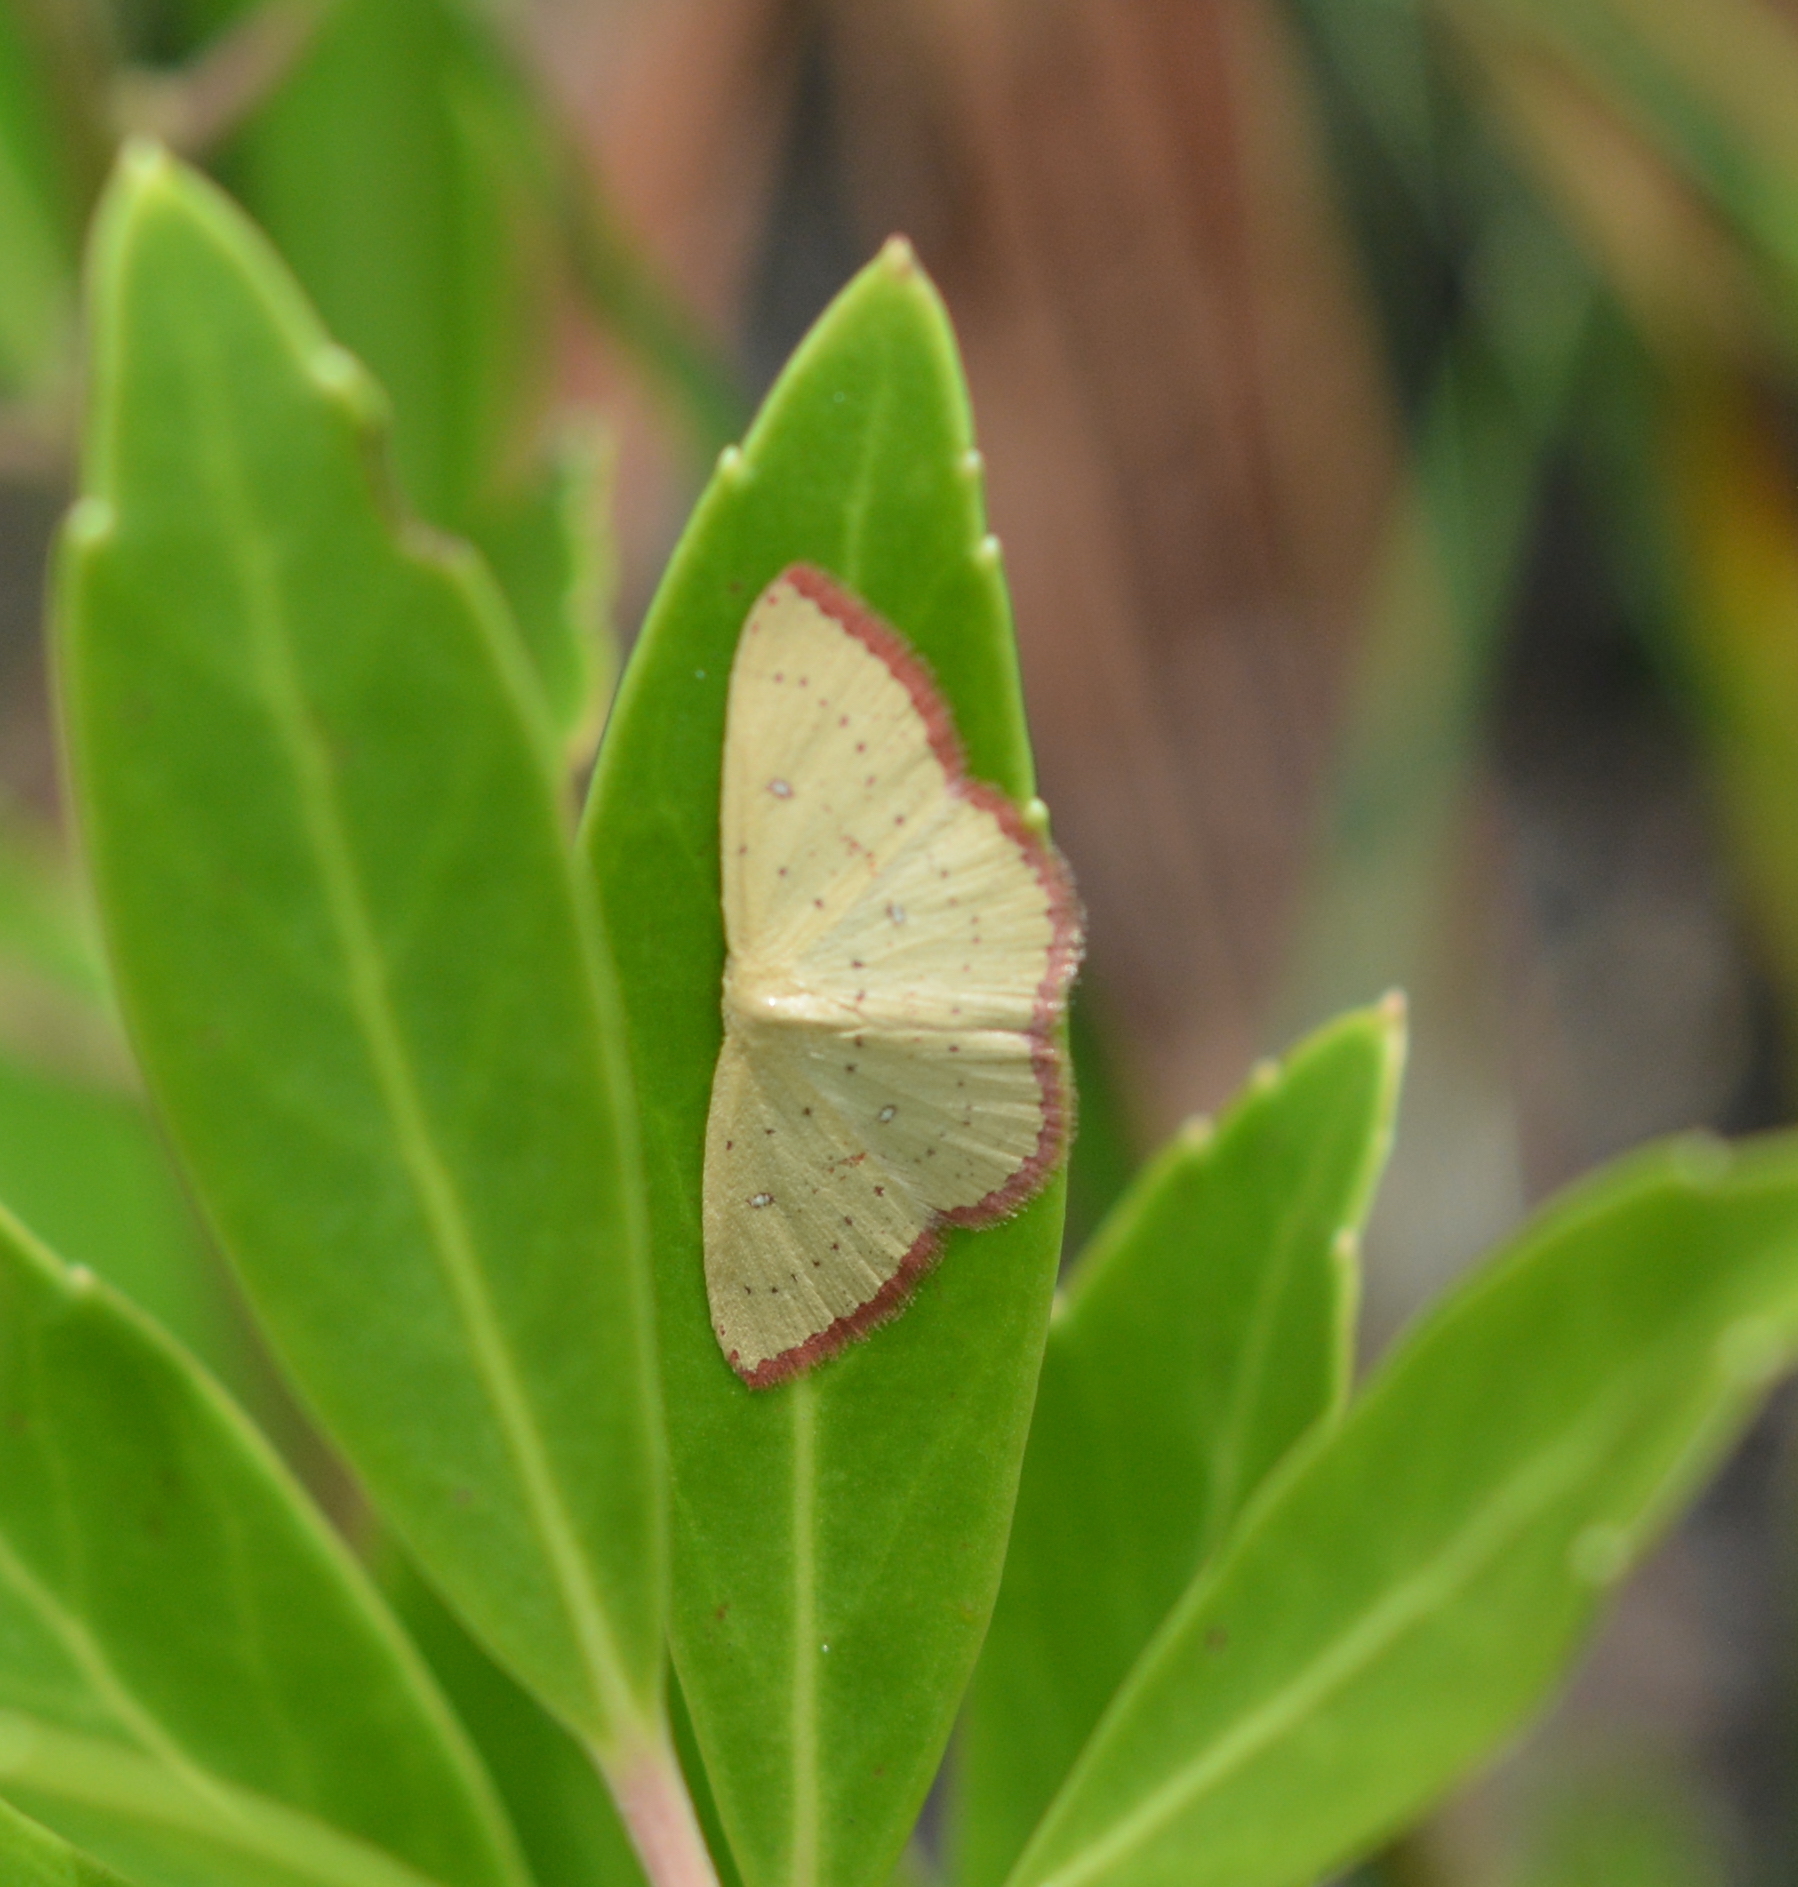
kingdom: Animalia
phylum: Arthropoda
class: Insecta
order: Lepidoptera
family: Geometridae
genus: Cyclophora
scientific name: Cyclophora culicaria
